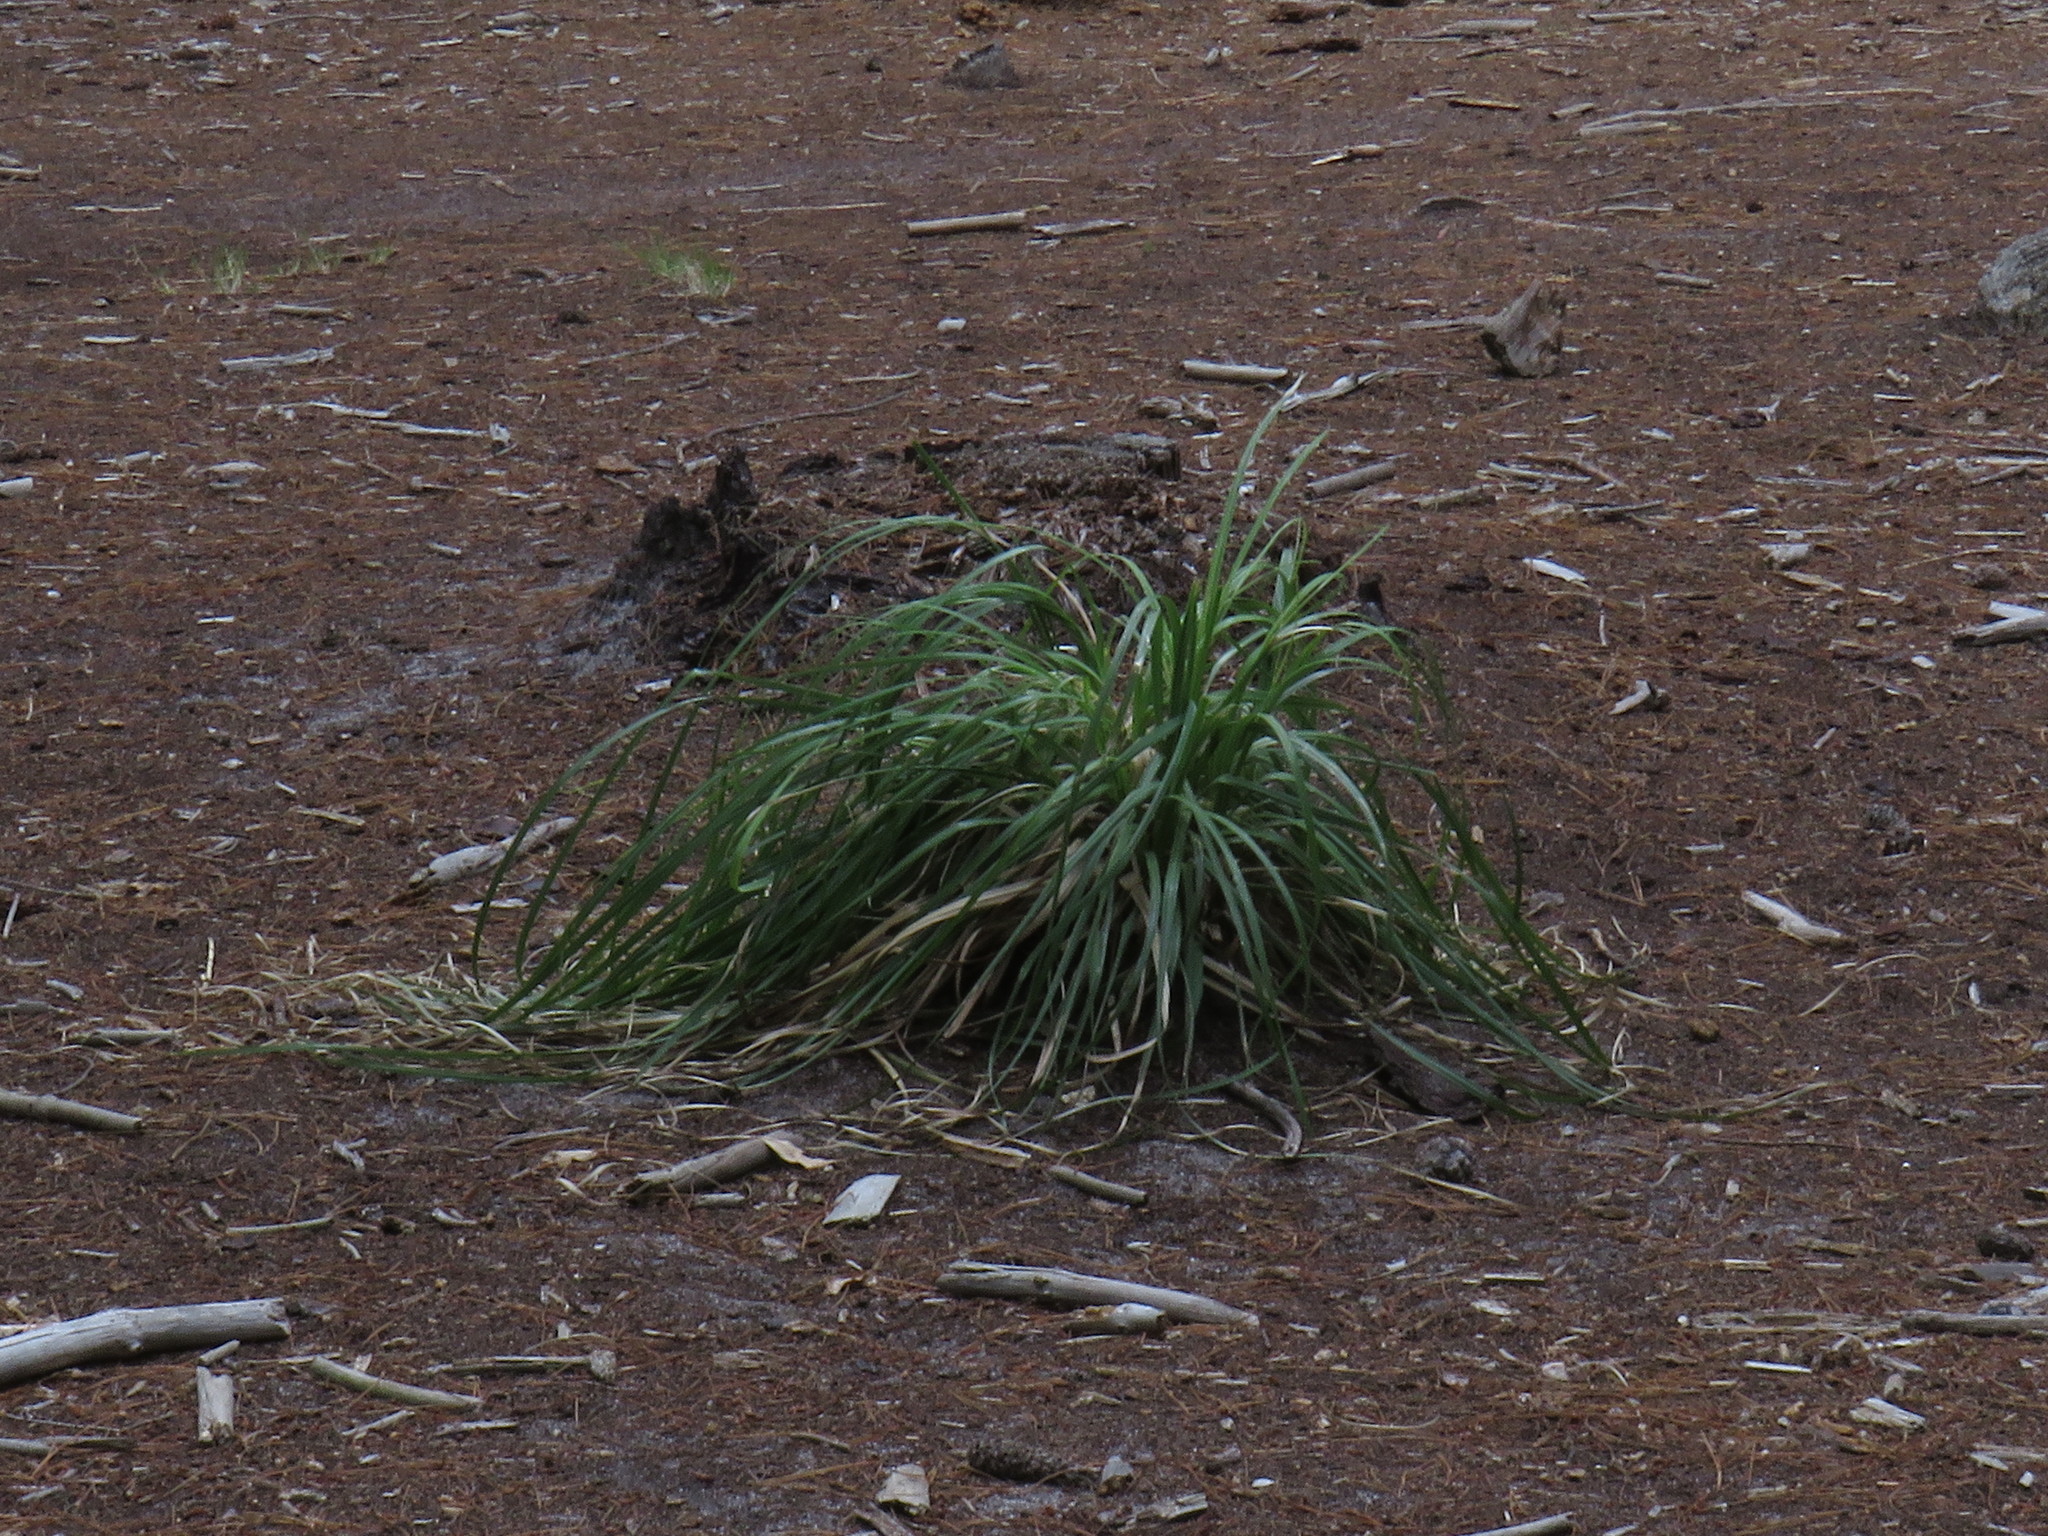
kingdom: Plantae
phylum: Tracheophyta
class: Liliopsida
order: Poales
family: Poaceae
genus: Cortaderia
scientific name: Cortaderia selloana
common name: Uruguayan pampas grass
